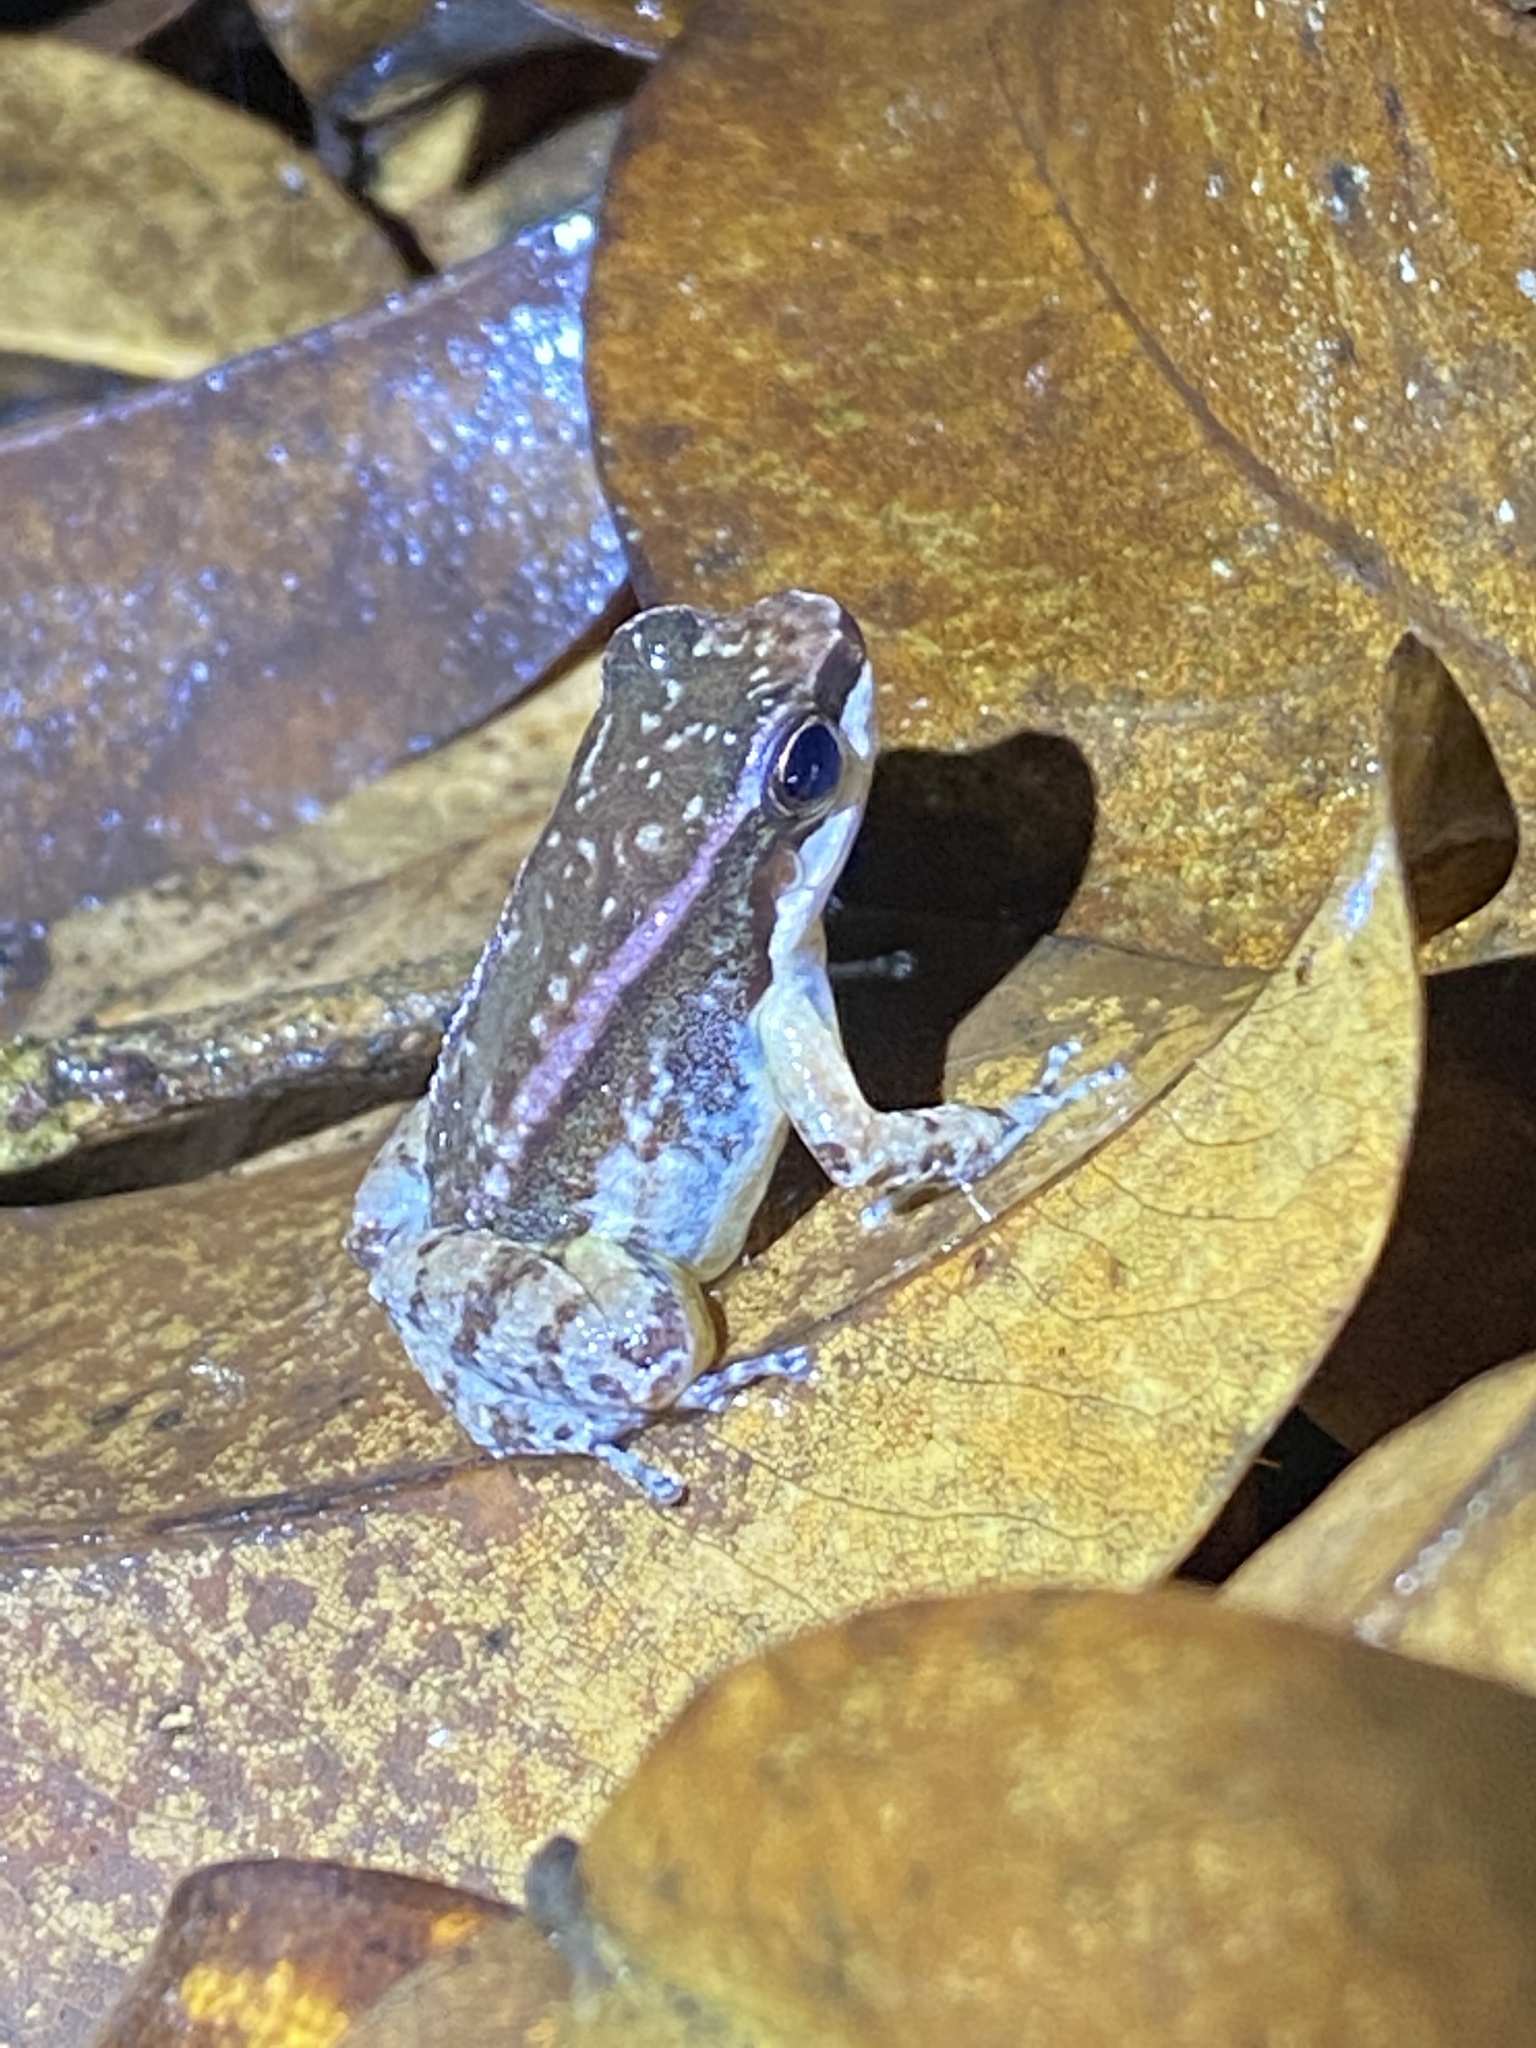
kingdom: Animalia
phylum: Chordata
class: Amphibia
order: Anura
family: Aromobatidae
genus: Mannophryne
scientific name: Mannophryne trinitatis
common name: Trinidad poison frog
